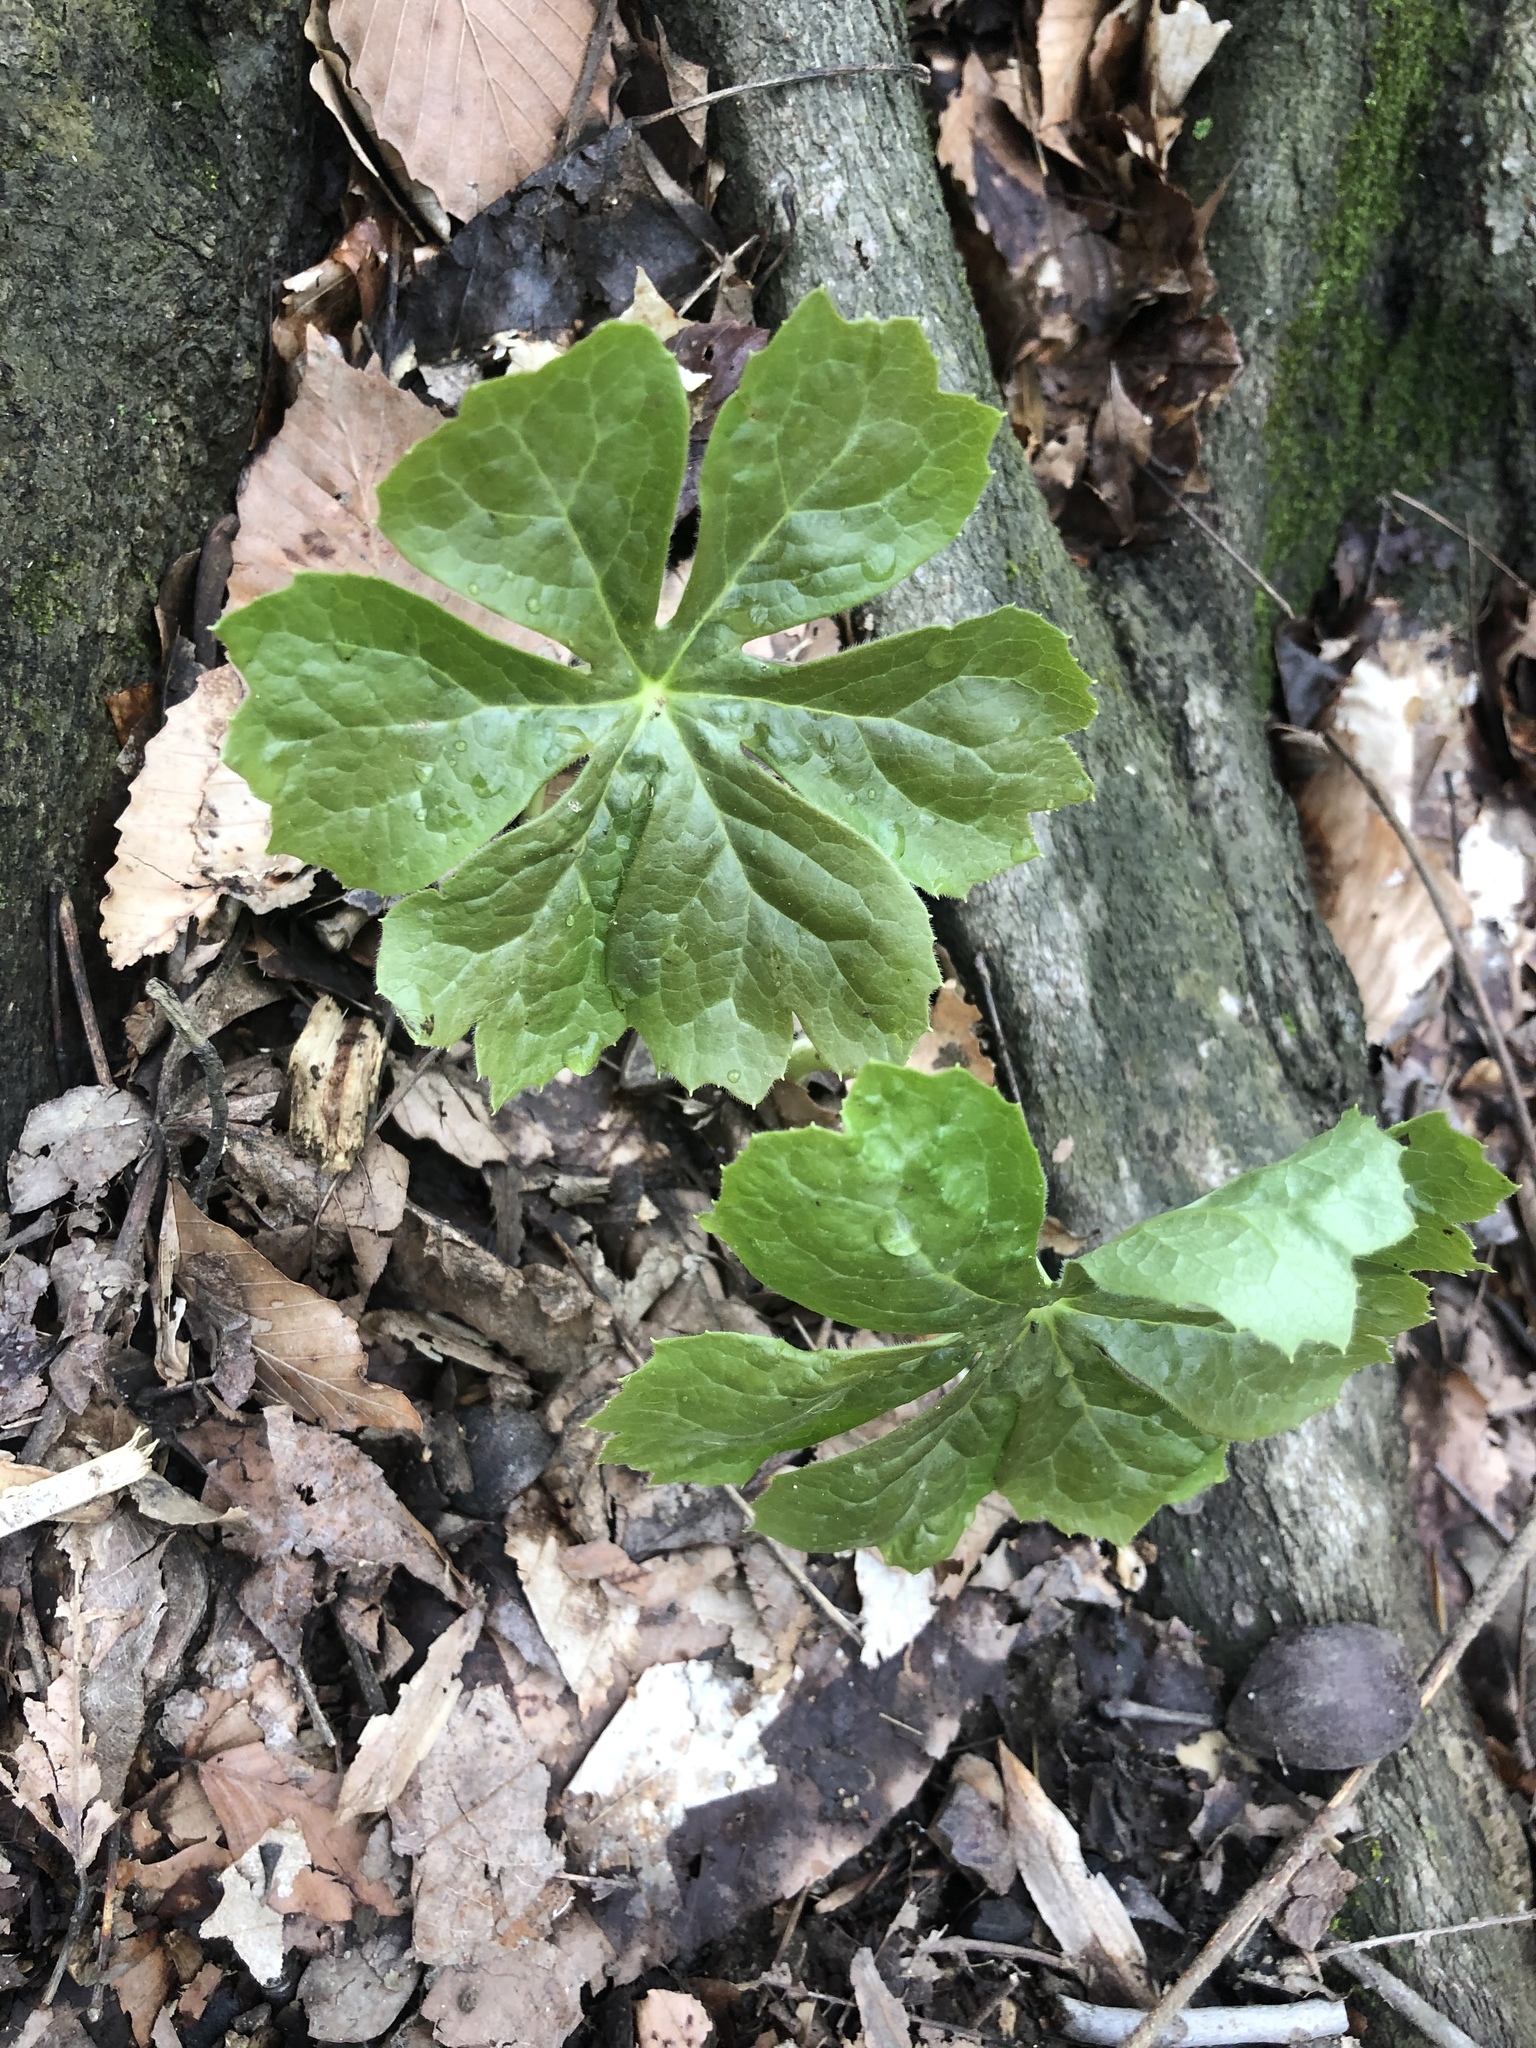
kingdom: Plantae
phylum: Tracheophyta
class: Magnoliopsida
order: Ranunculales
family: Berberidaceae
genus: Podophyllum
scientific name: Podophyllum peltatum
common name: Wild mandrake
